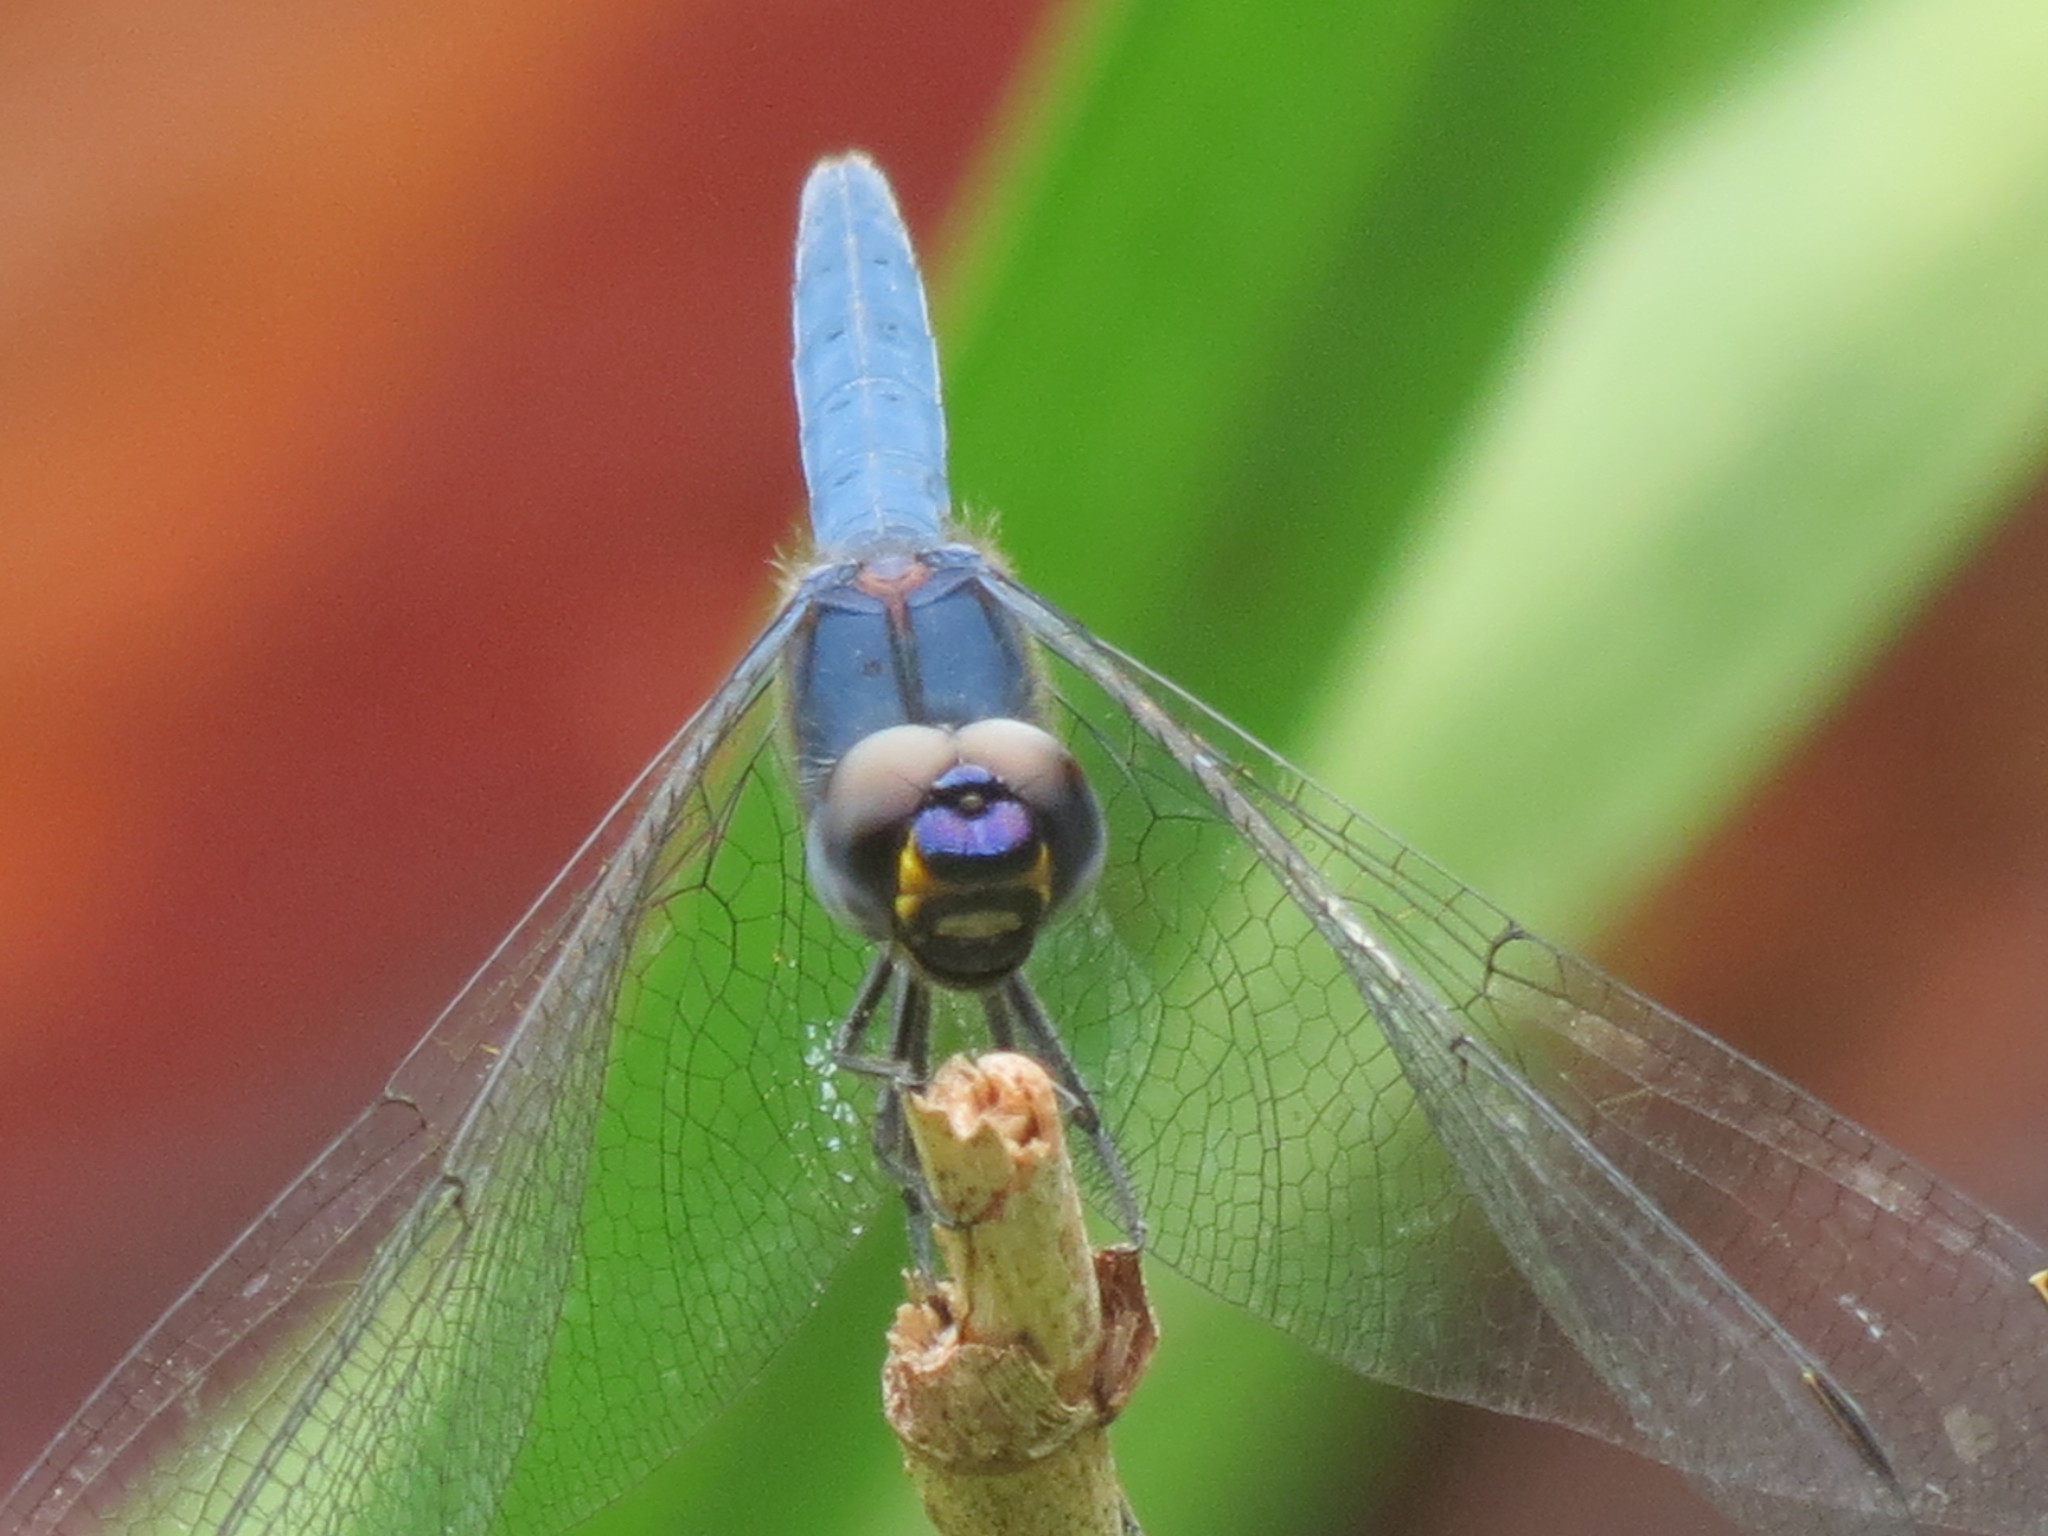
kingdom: Animalia
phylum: Arthropoda
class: Insecta
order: Odonata
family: Libellulidae
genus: Trithemis
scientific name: Trithemis furva
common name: Dark dropwing
